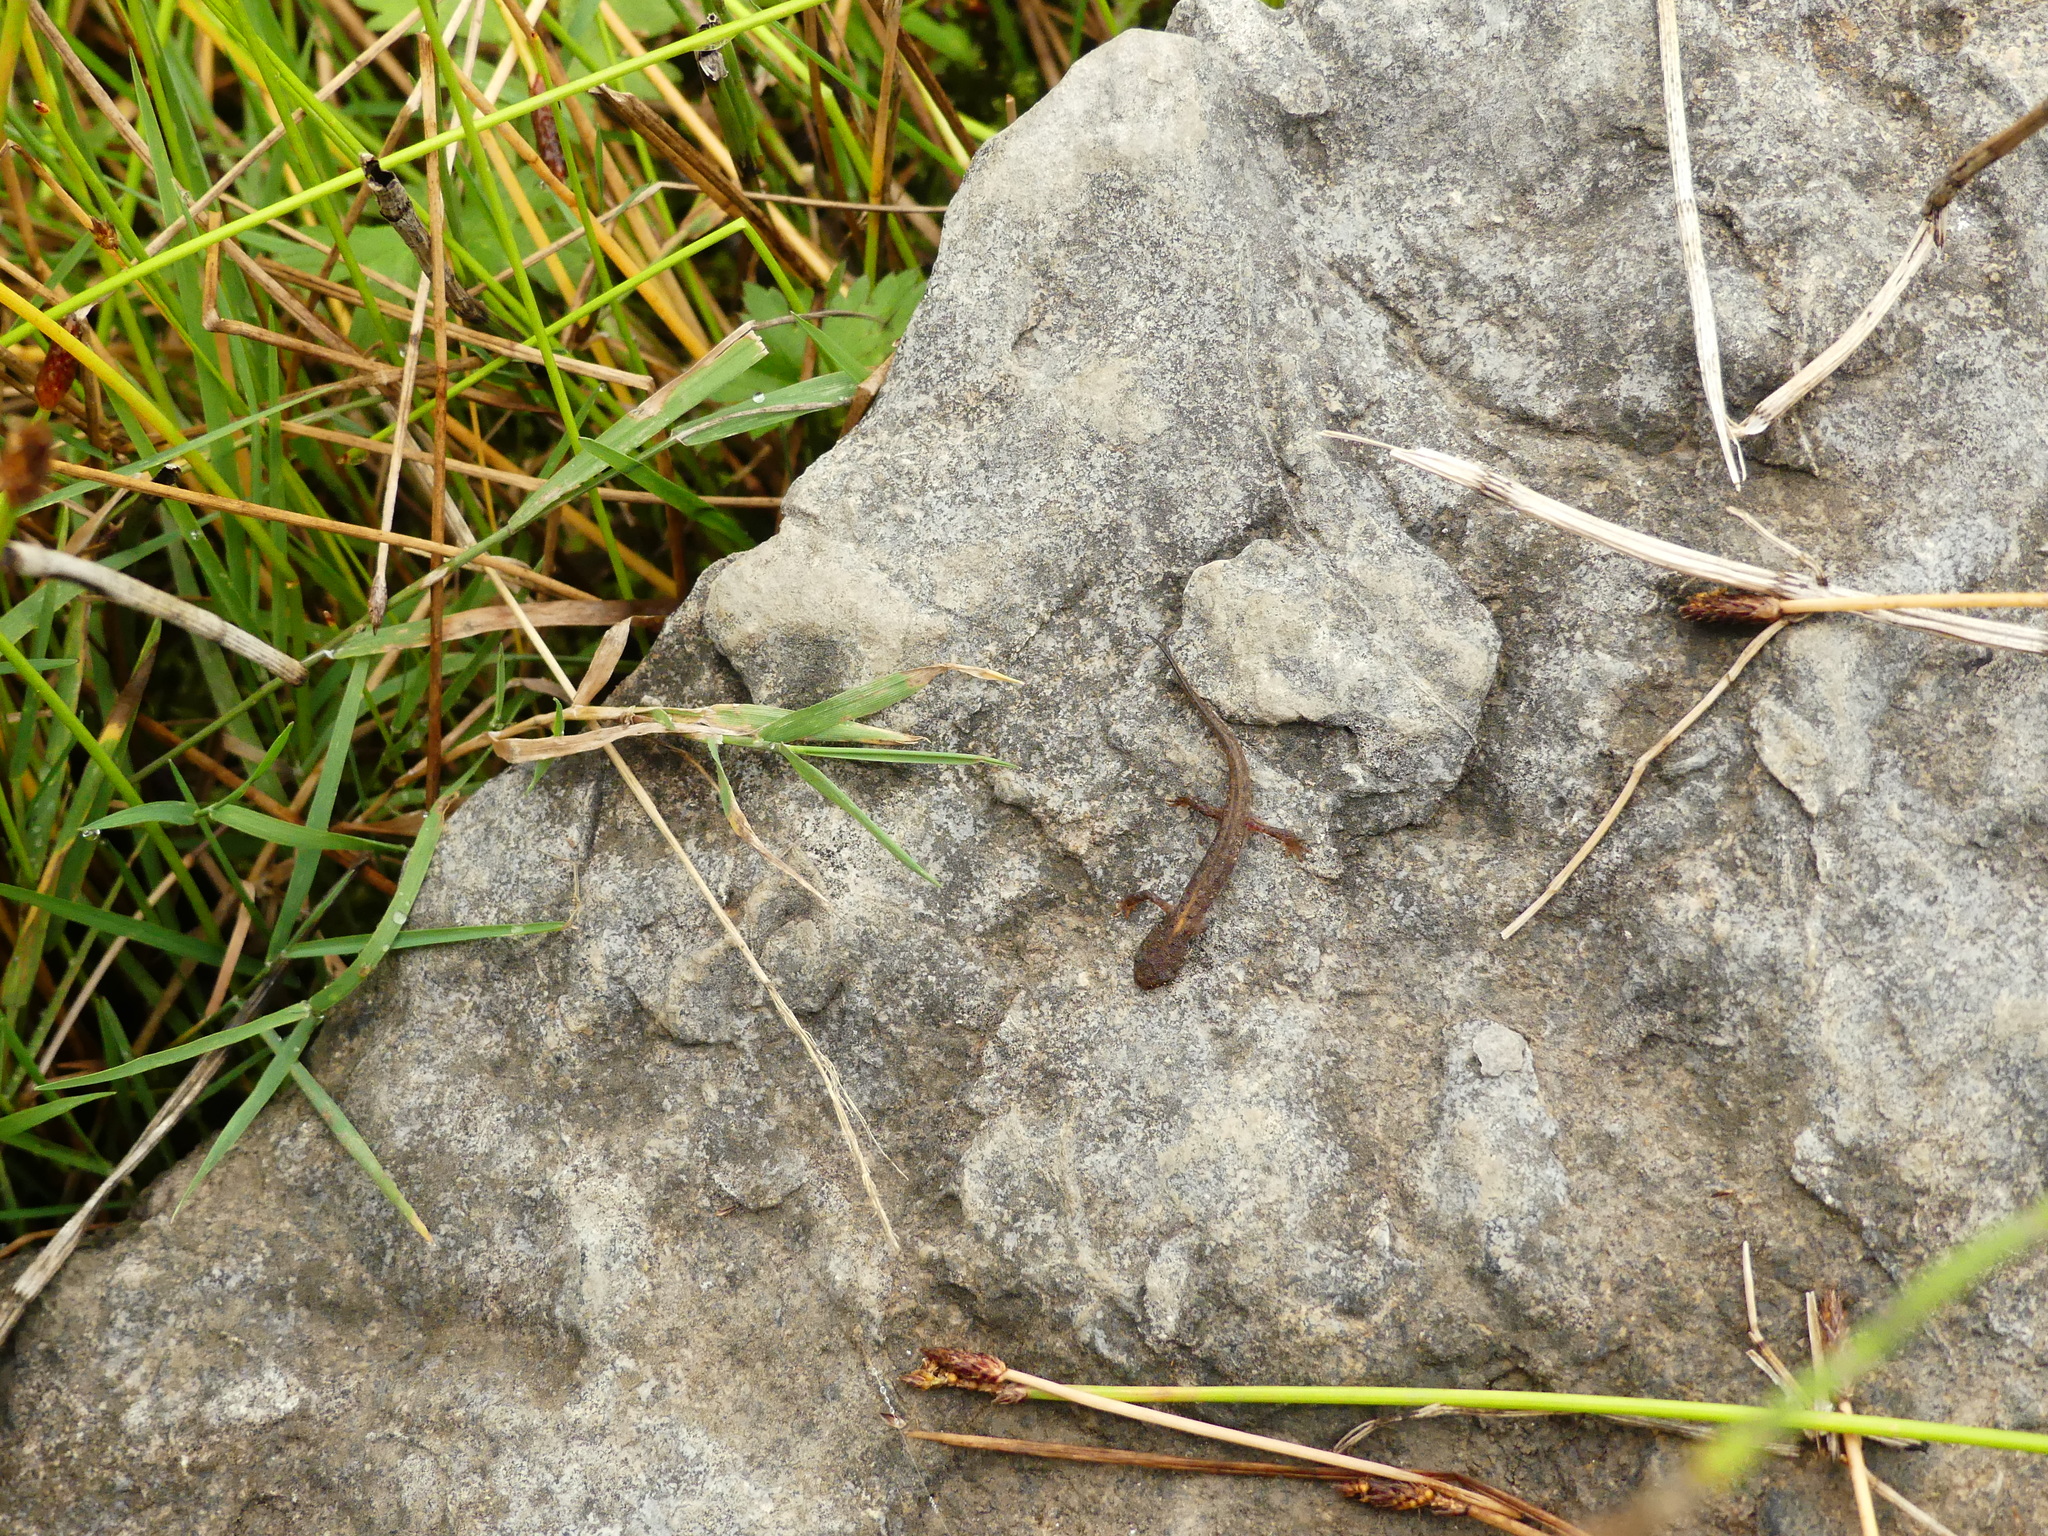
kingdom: Animalia
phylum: Chordata
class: Amphibia
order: Caudata
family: Salamandridae
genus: Ichthyosaura
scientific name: Ichthyosaura alpestris
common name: Alpine newt
